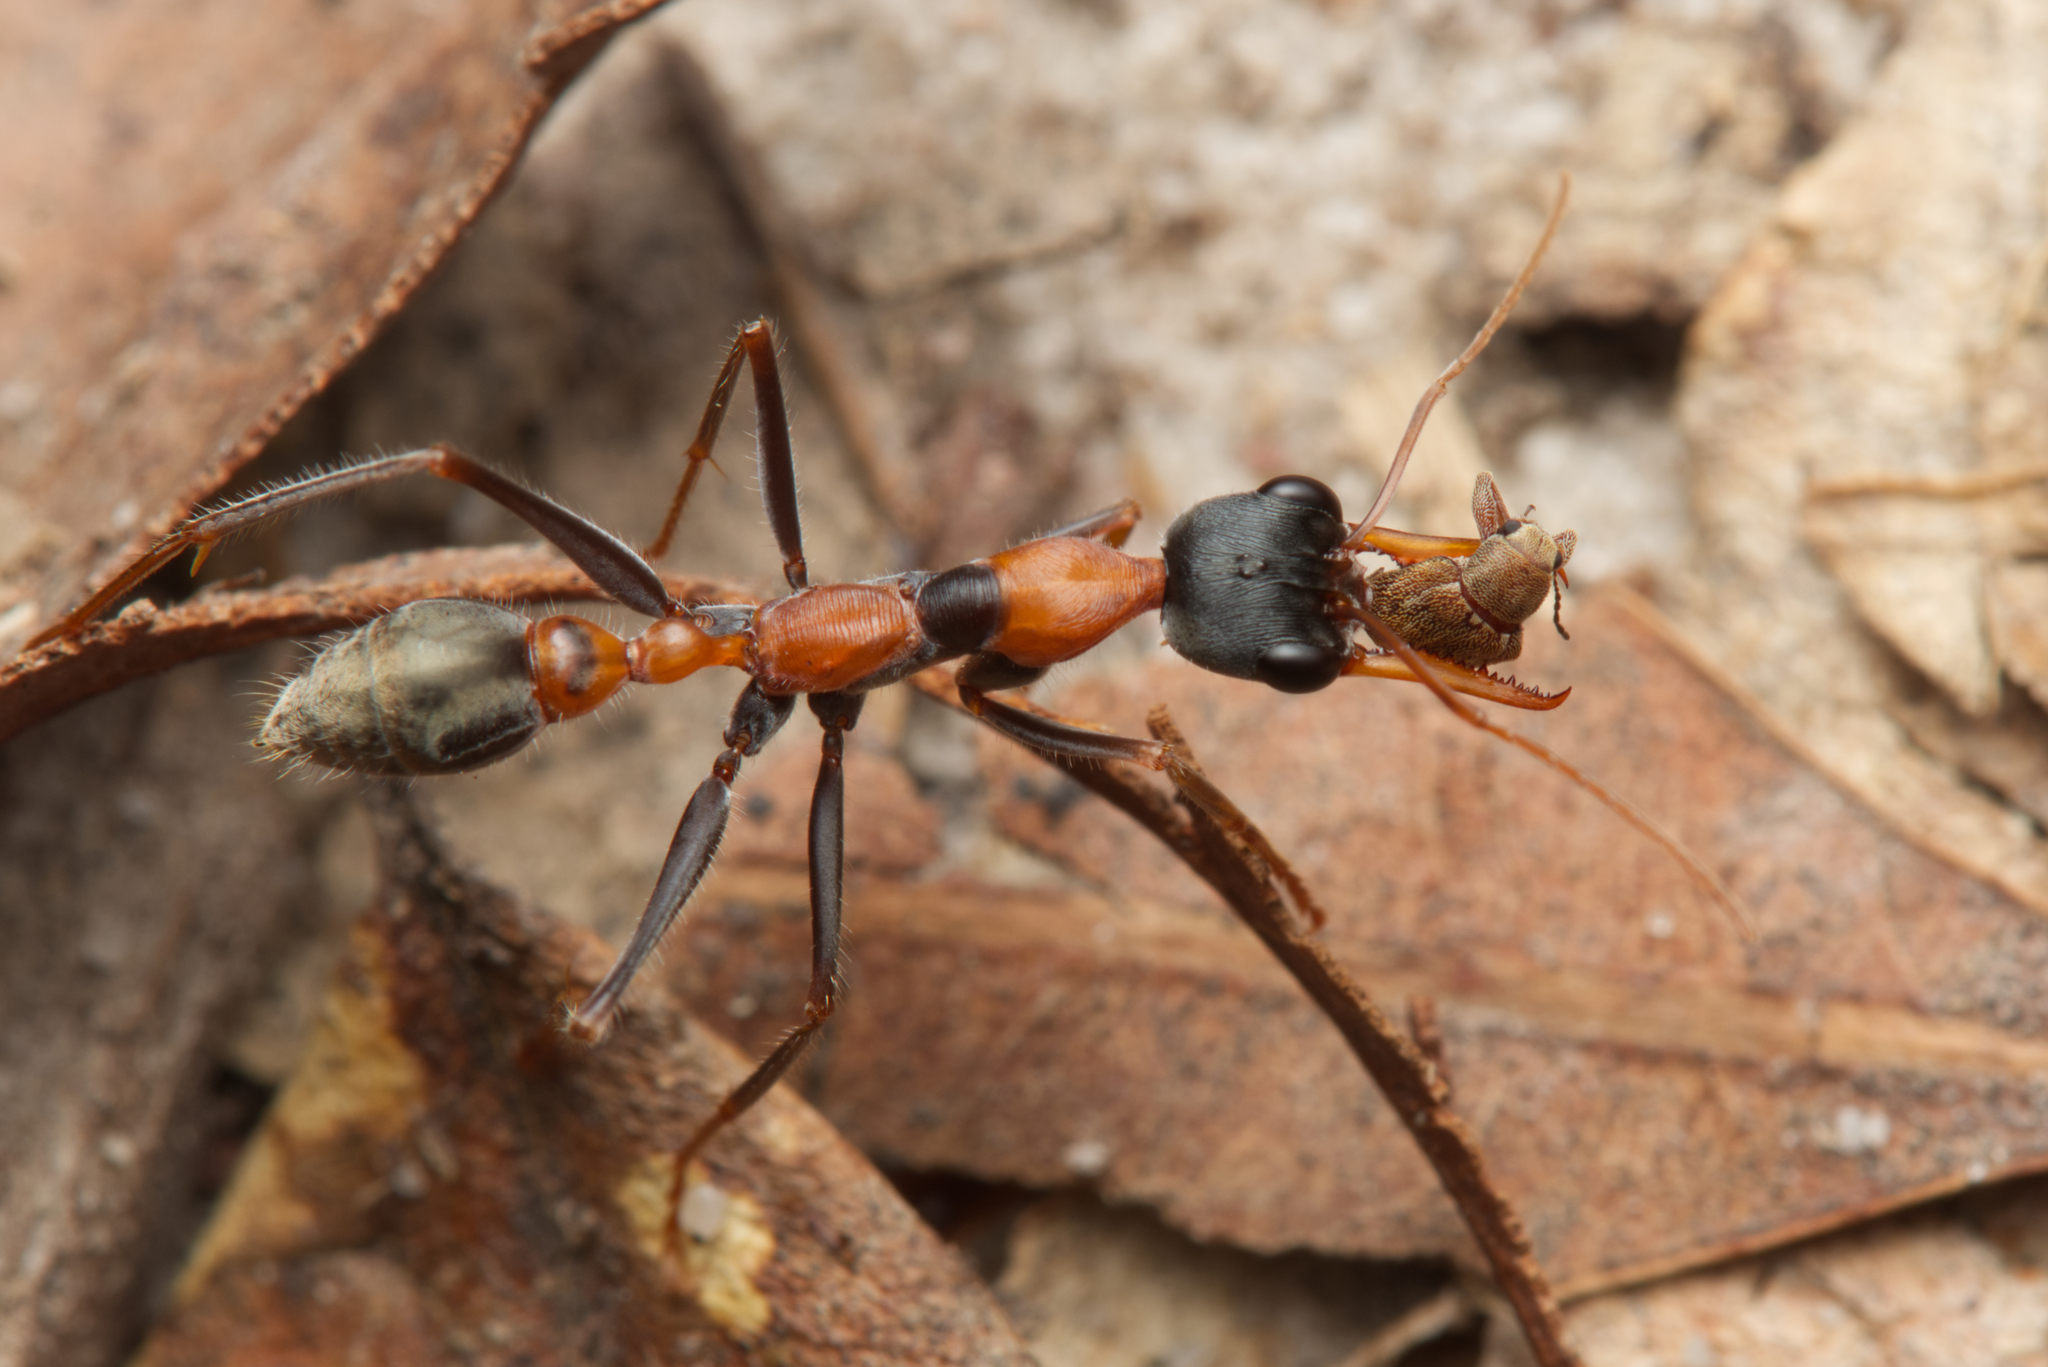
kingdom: Animalia
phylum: Arthropoda
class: Insecta
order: Hymenoptera
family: Formicidae
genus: Myrmecia
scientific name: Myrmecia nigrocincta
